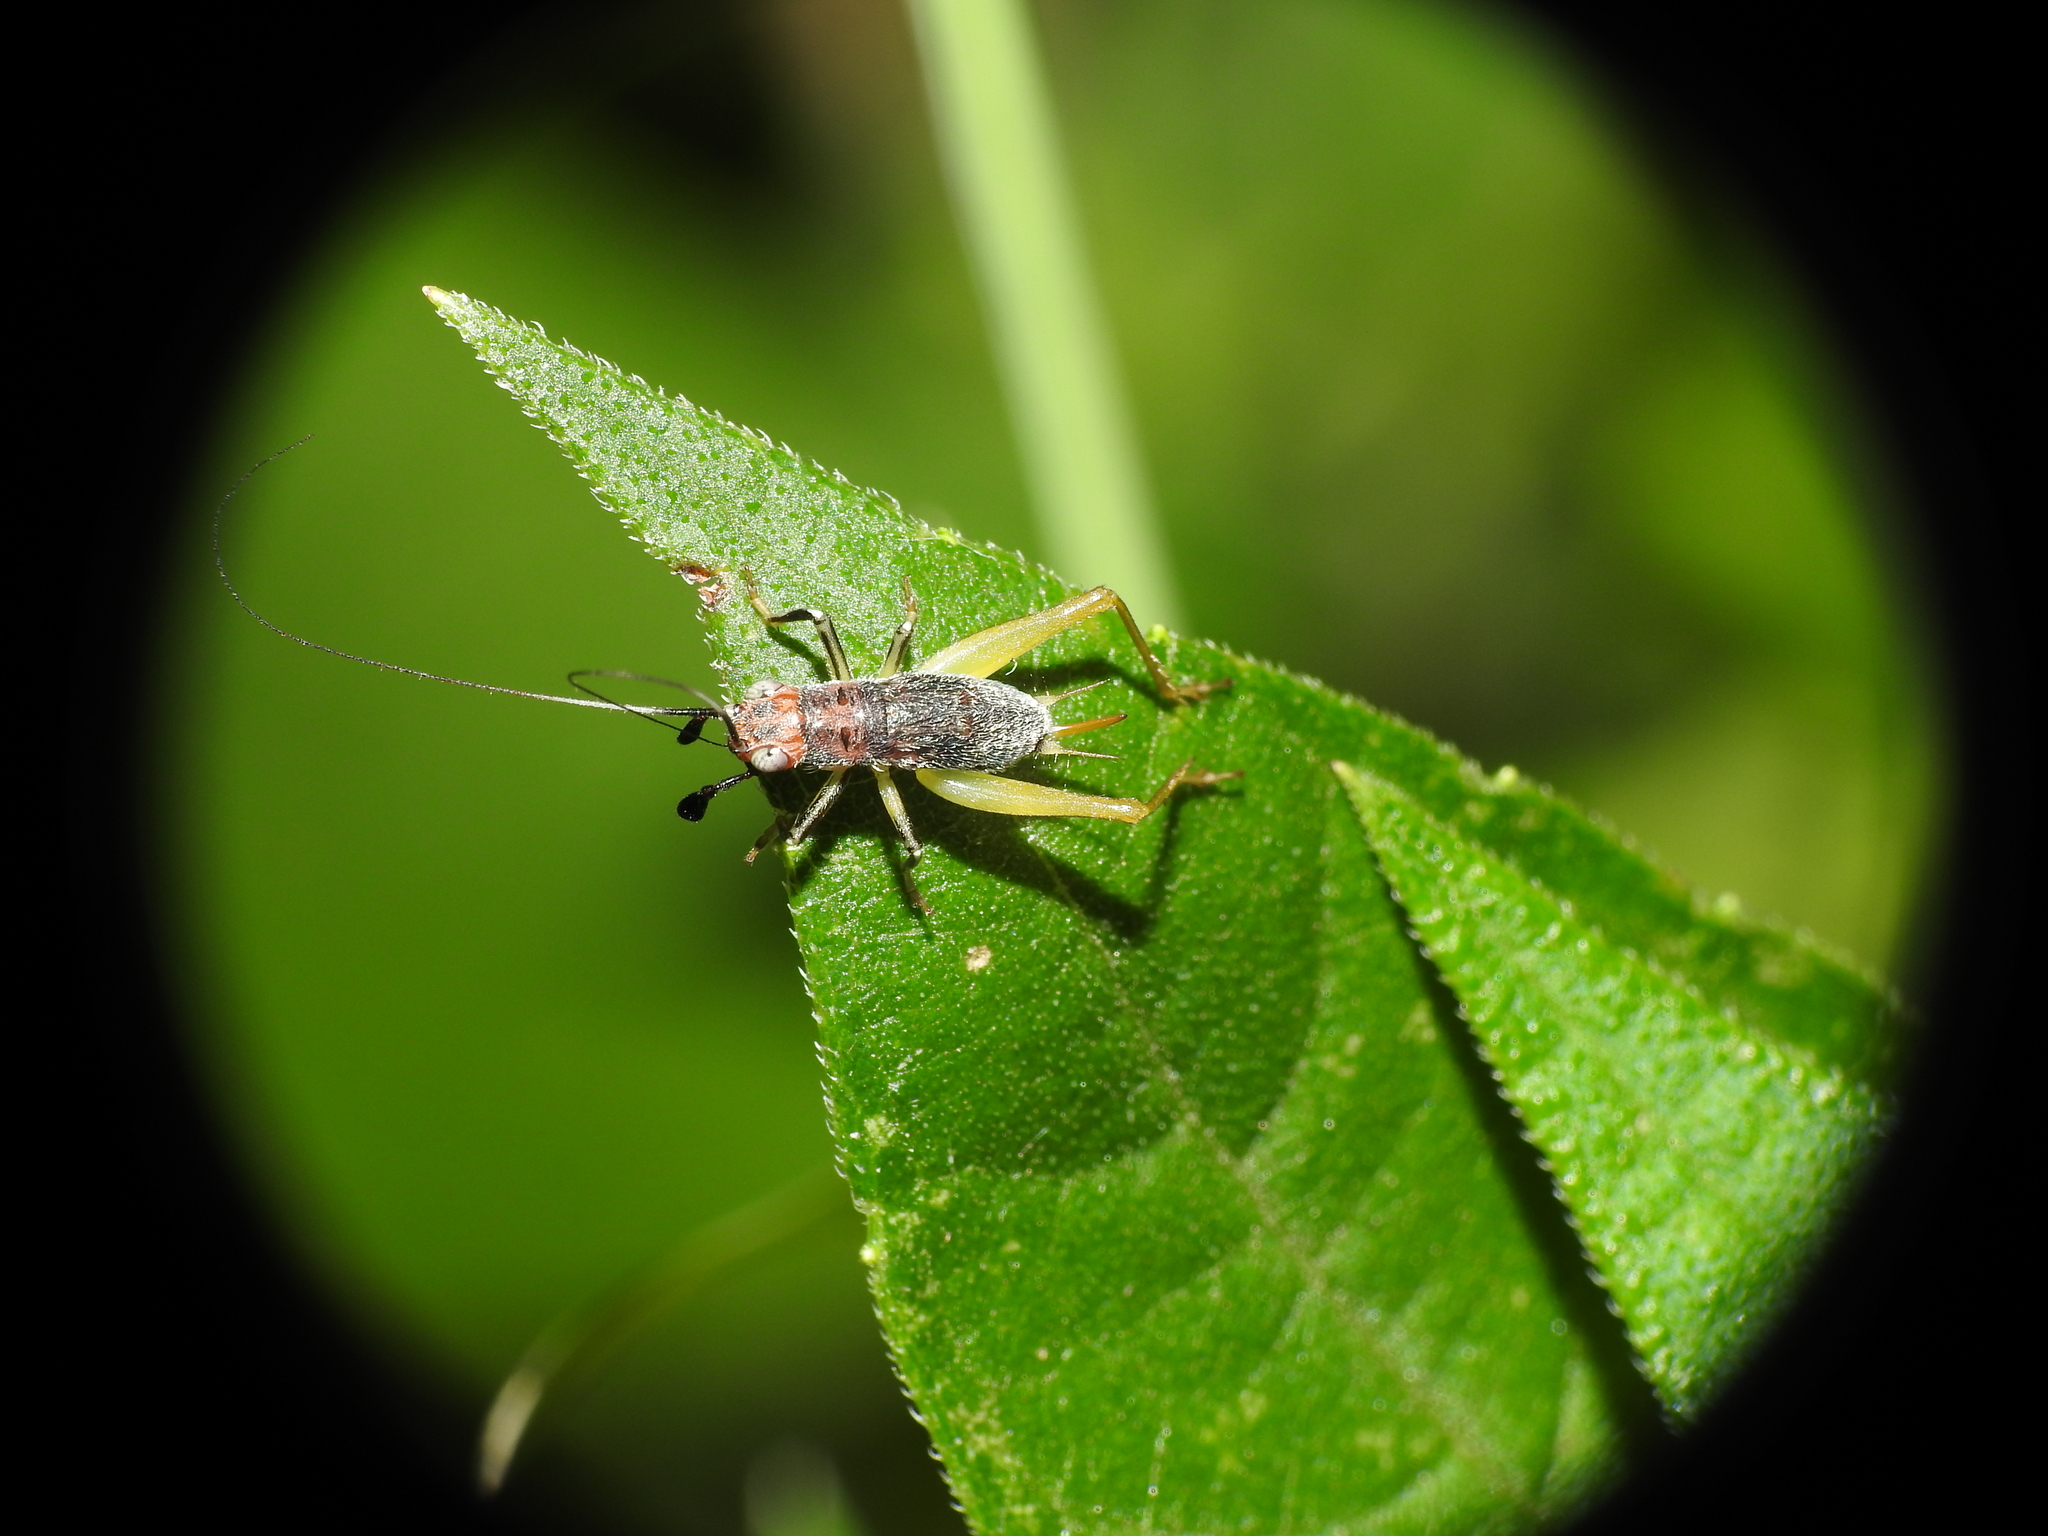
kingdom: Animalia
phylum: Arthropoda
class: Insecta
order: Orthoptera
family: Trigonidiidae
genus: Phyllopalpus
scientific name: Phyllopalpus pulchellus
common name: Handsome trig
